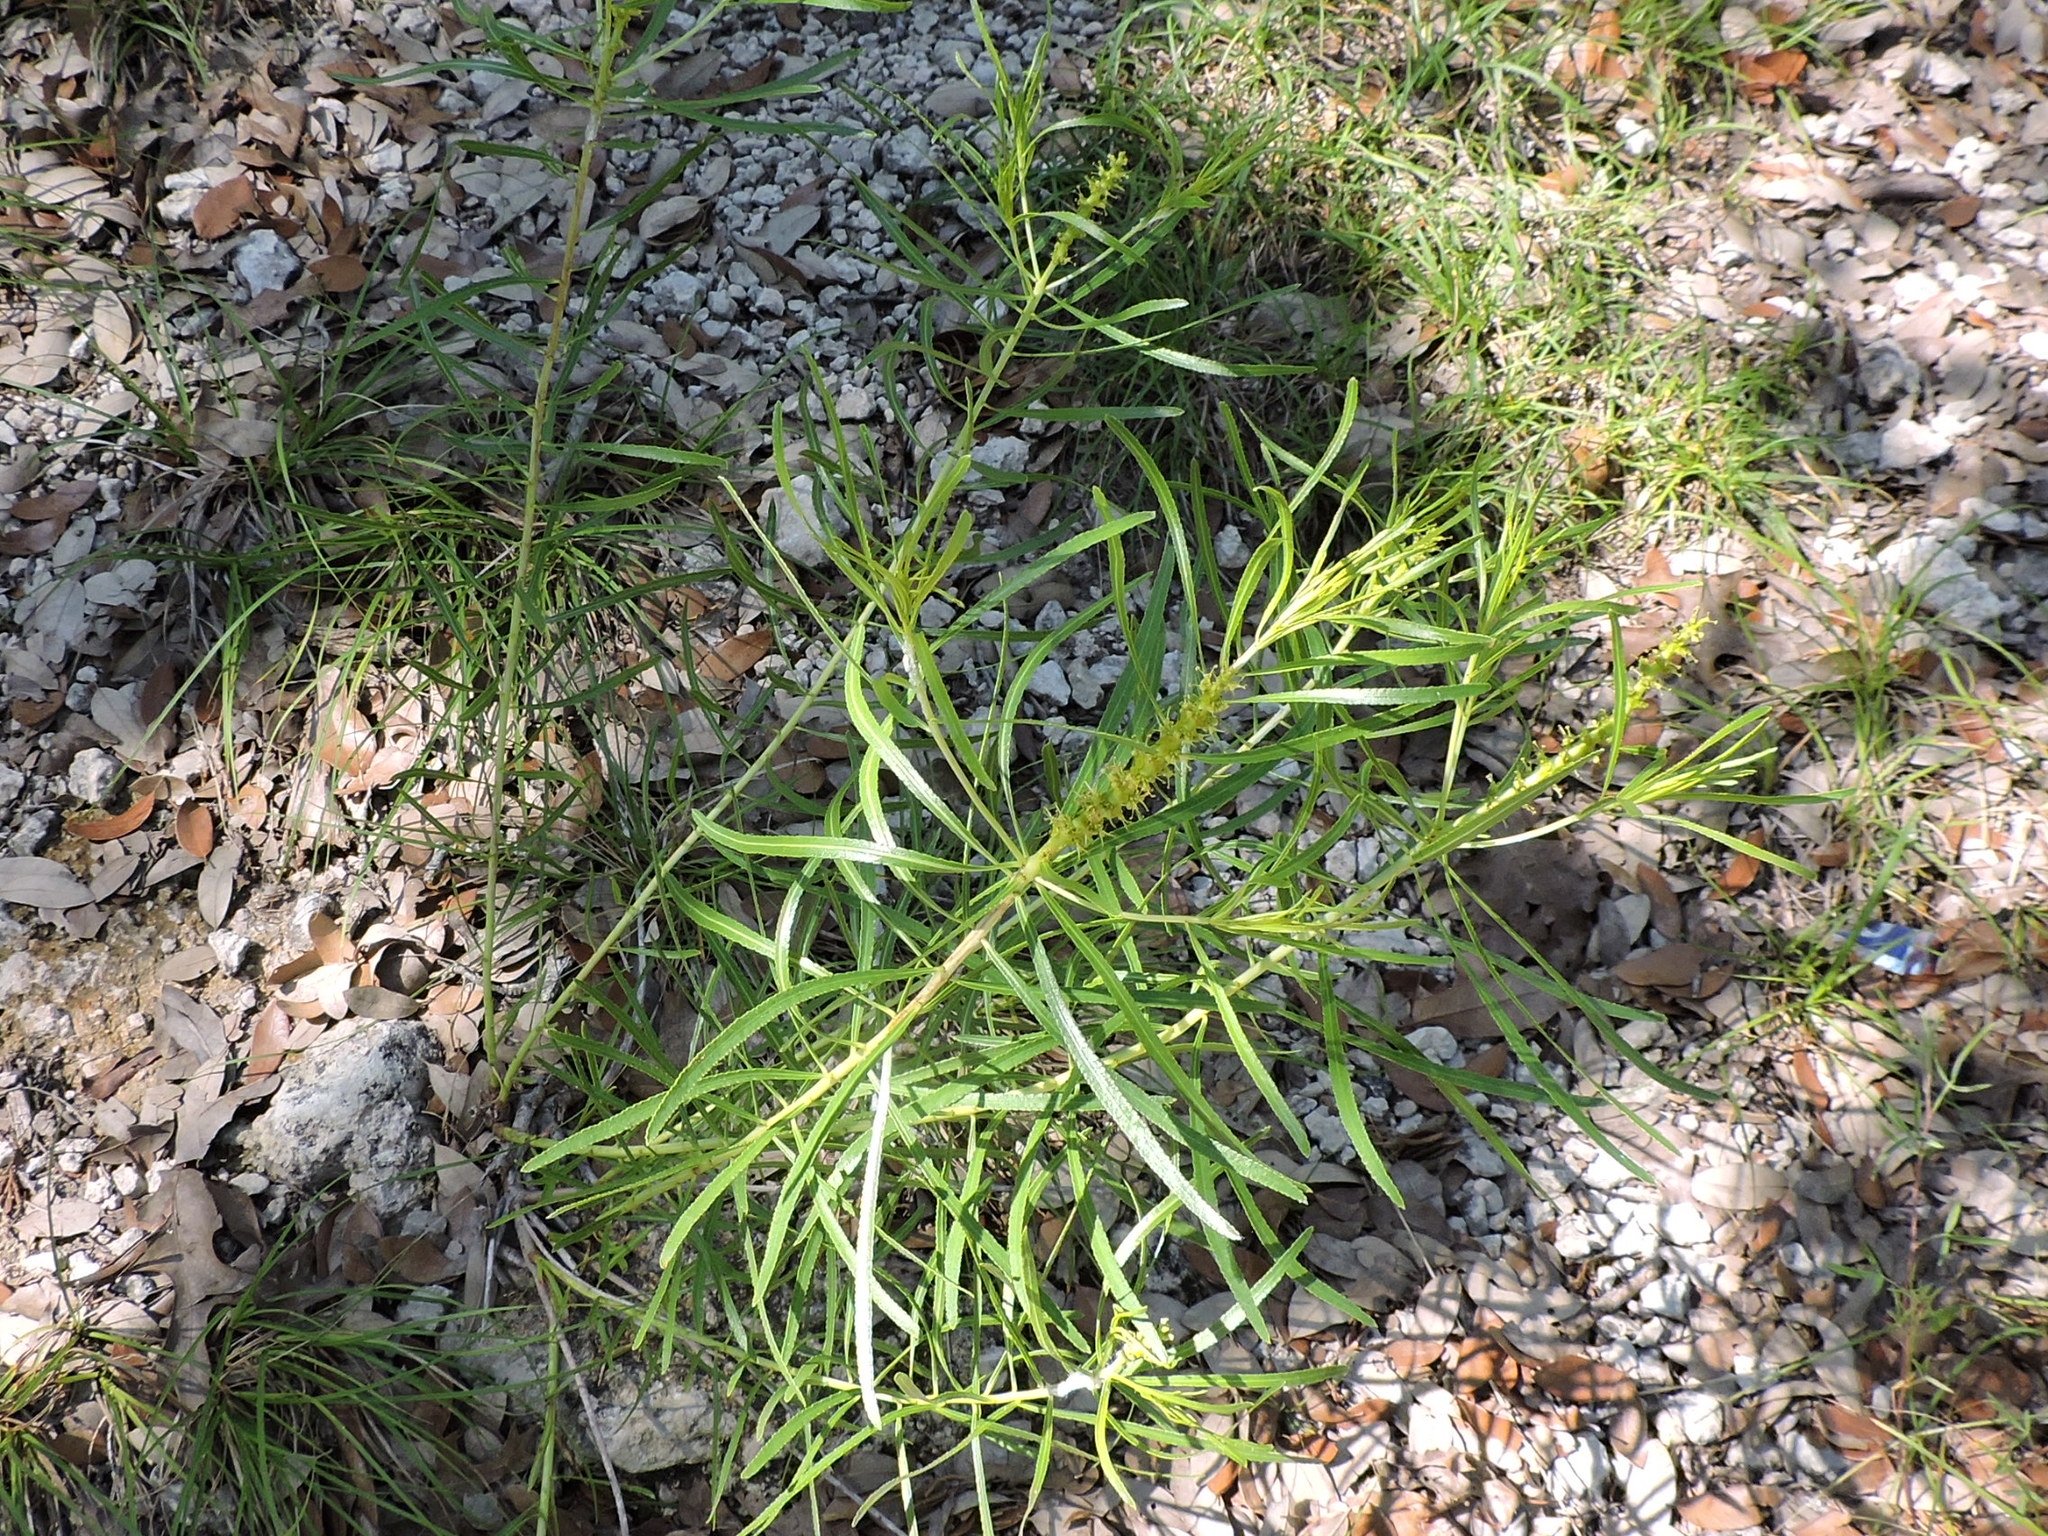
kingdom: Plantae
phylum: Tracheophyta
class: Magnoliopsida
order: Malpighiales
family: Euphorbiaceae
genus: Stillingia
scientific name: Stillingia texana
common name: Texas stillingia
